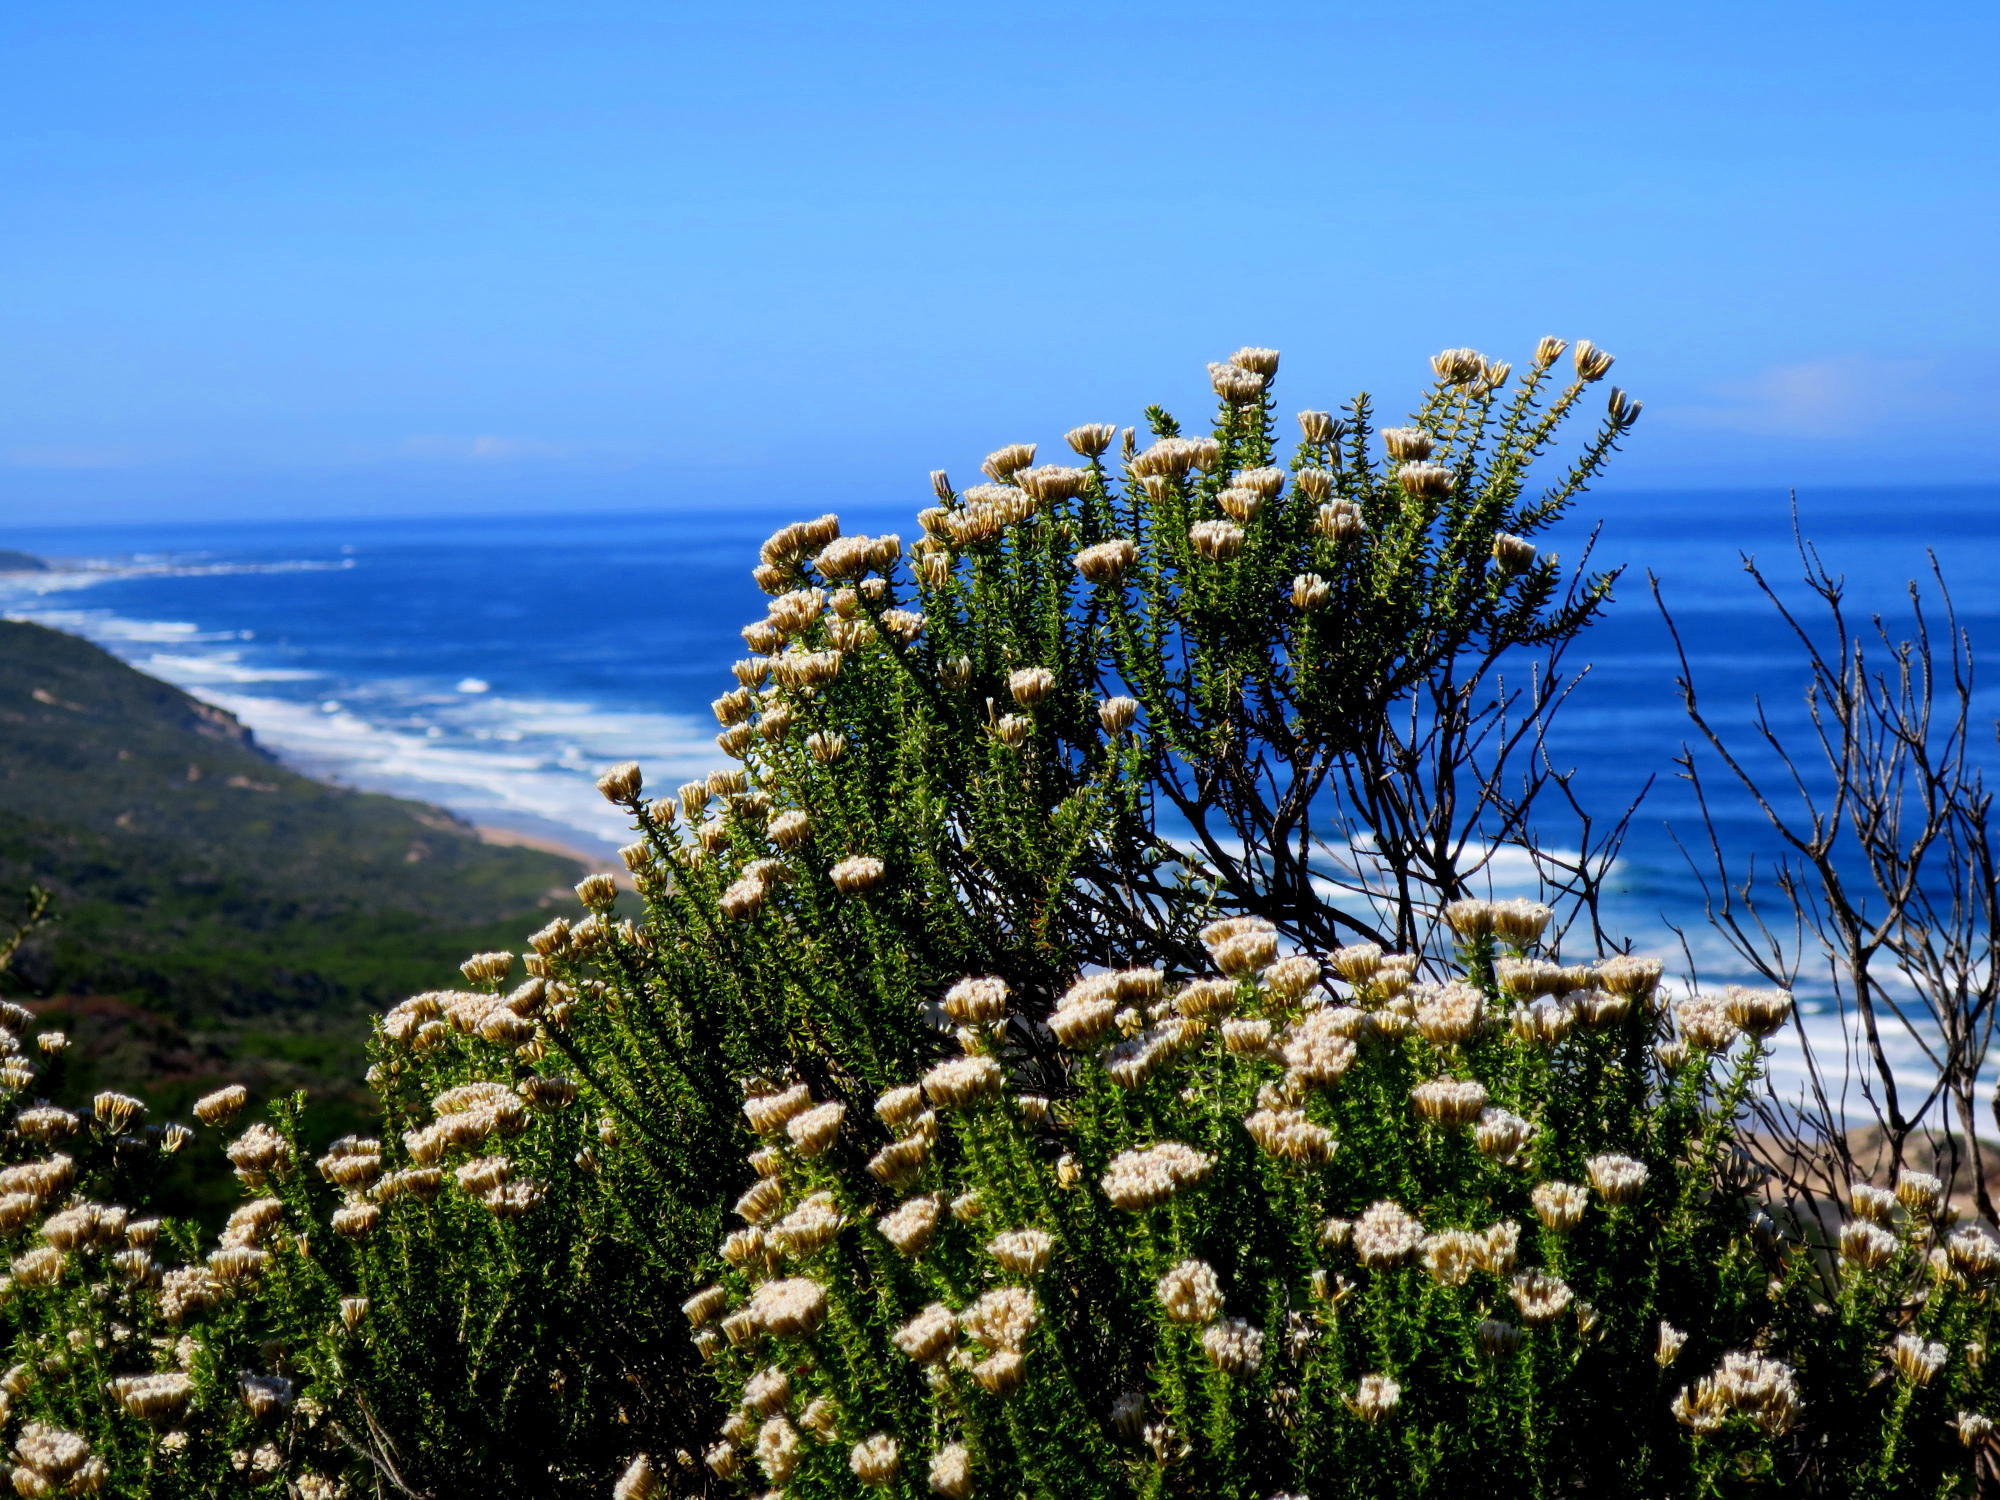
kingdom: Plantae
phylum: Tracheophyta
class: Magnoliopsida
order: Asterales
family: Asteraceae
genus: Metalasia
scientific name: Metalasia muricata
